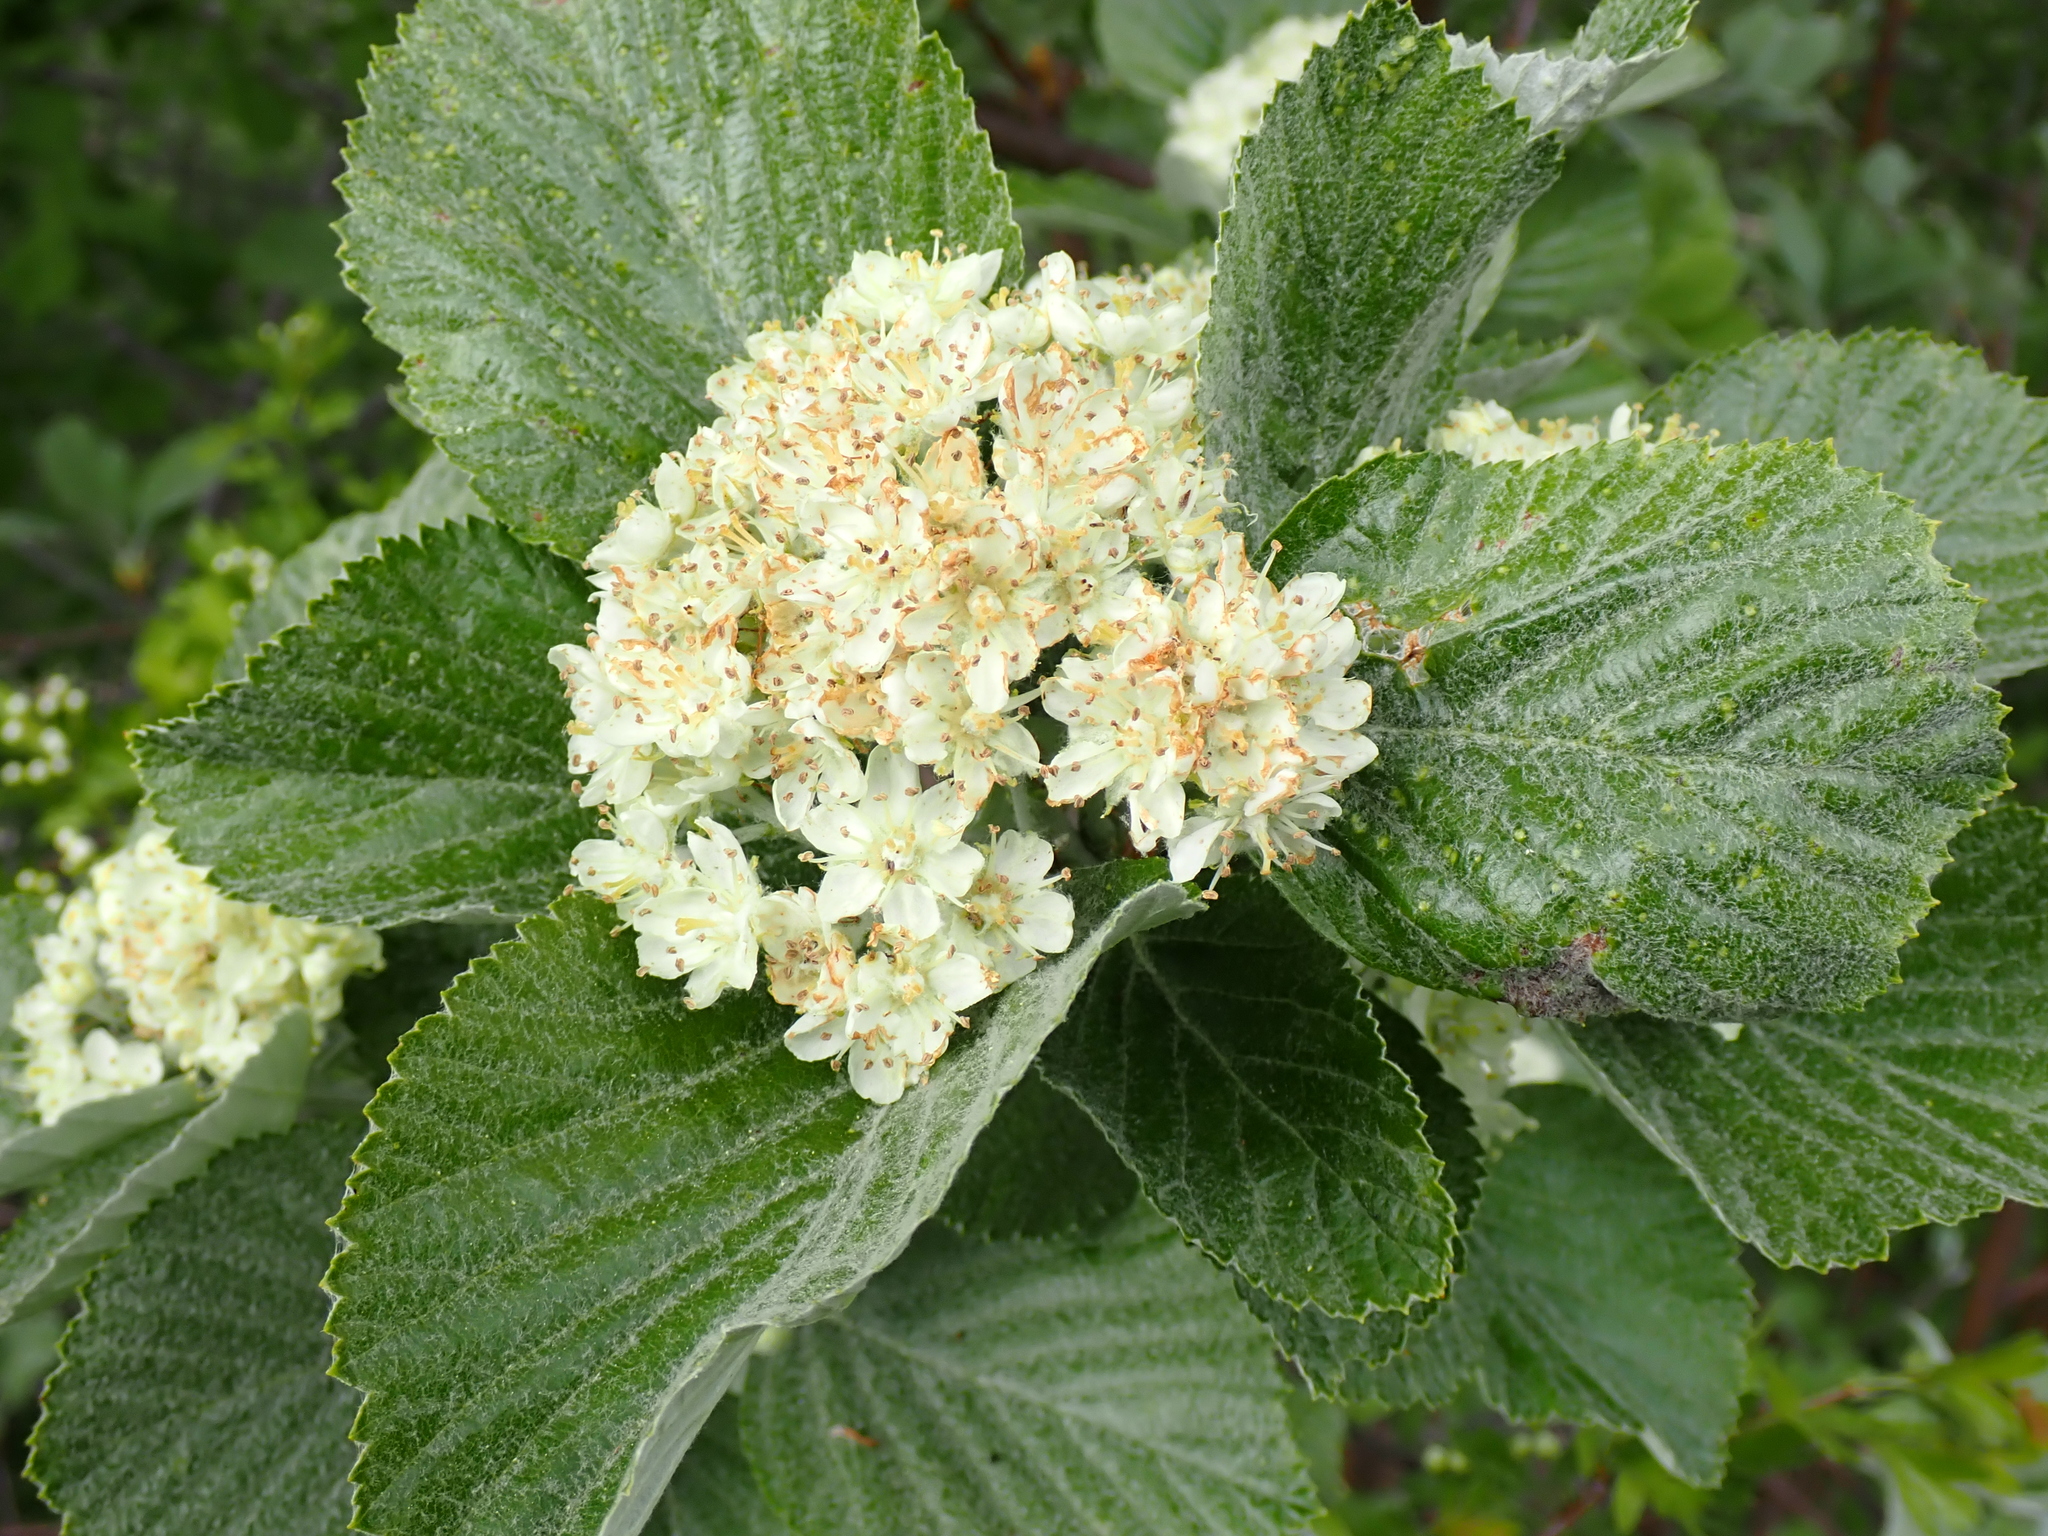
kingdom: Plantae
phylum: Tracheophyta
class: Magnoliopsida
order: Rosales
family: Rosaceae
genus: Aria
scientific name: Aria edulis
